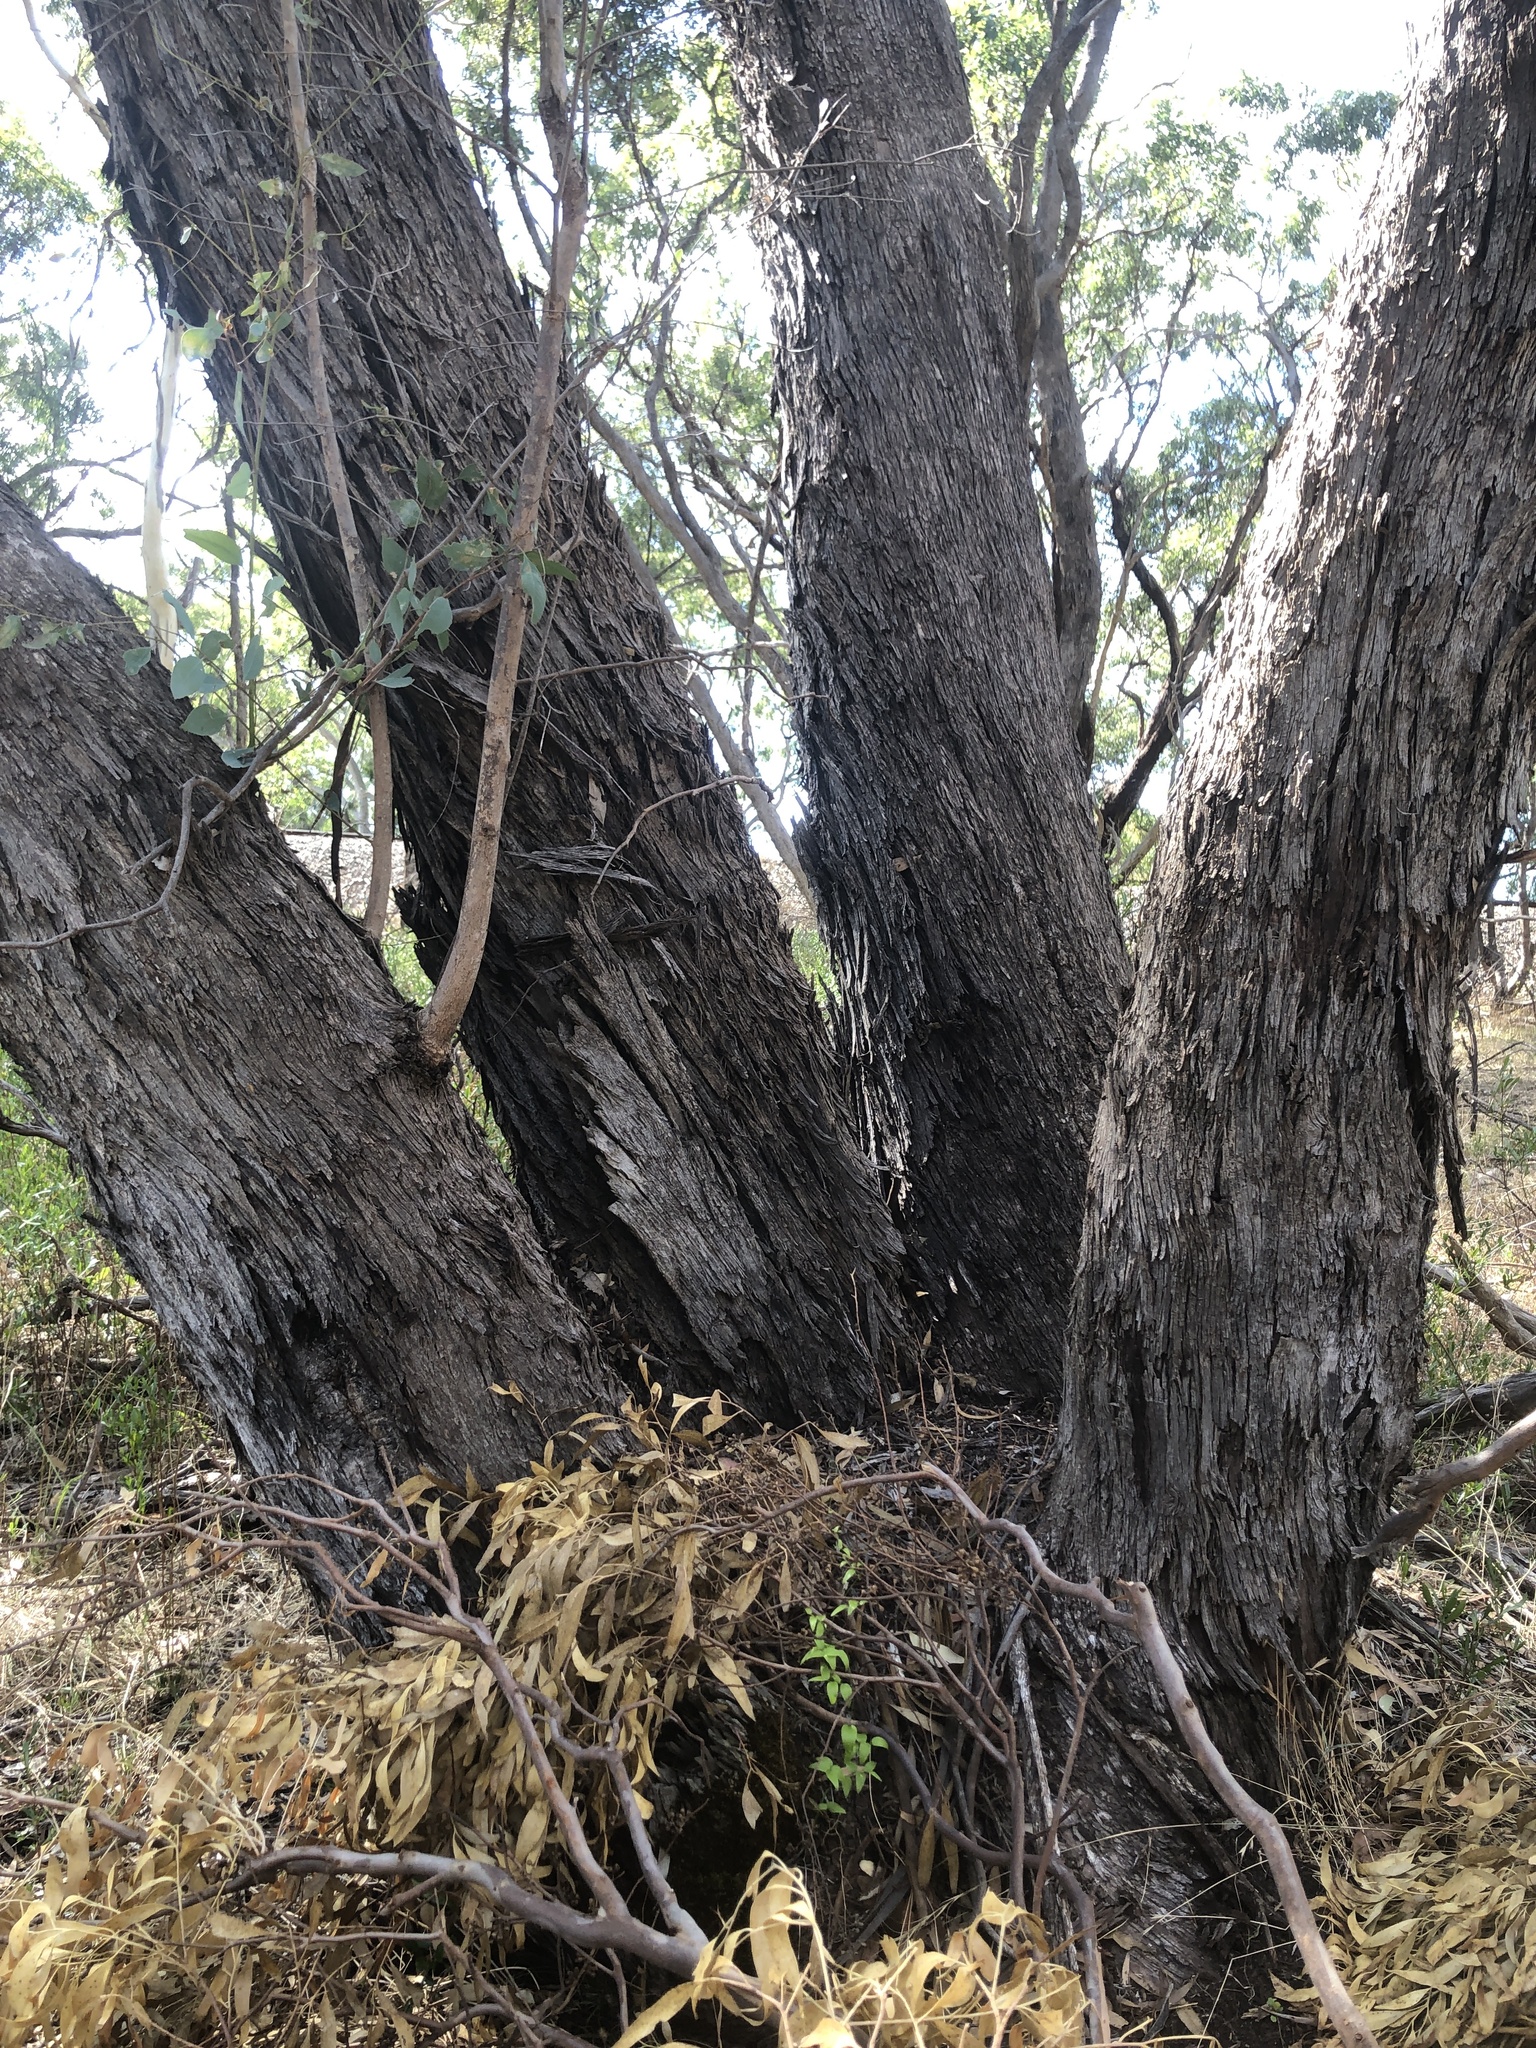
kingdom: Plantae
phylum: Tracheophyta
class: Magnoliopsida
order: Myrtales
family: Myrtaceae
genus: Eucalyptus
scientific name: Eucalyptus microcarpa
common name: Grey-box
